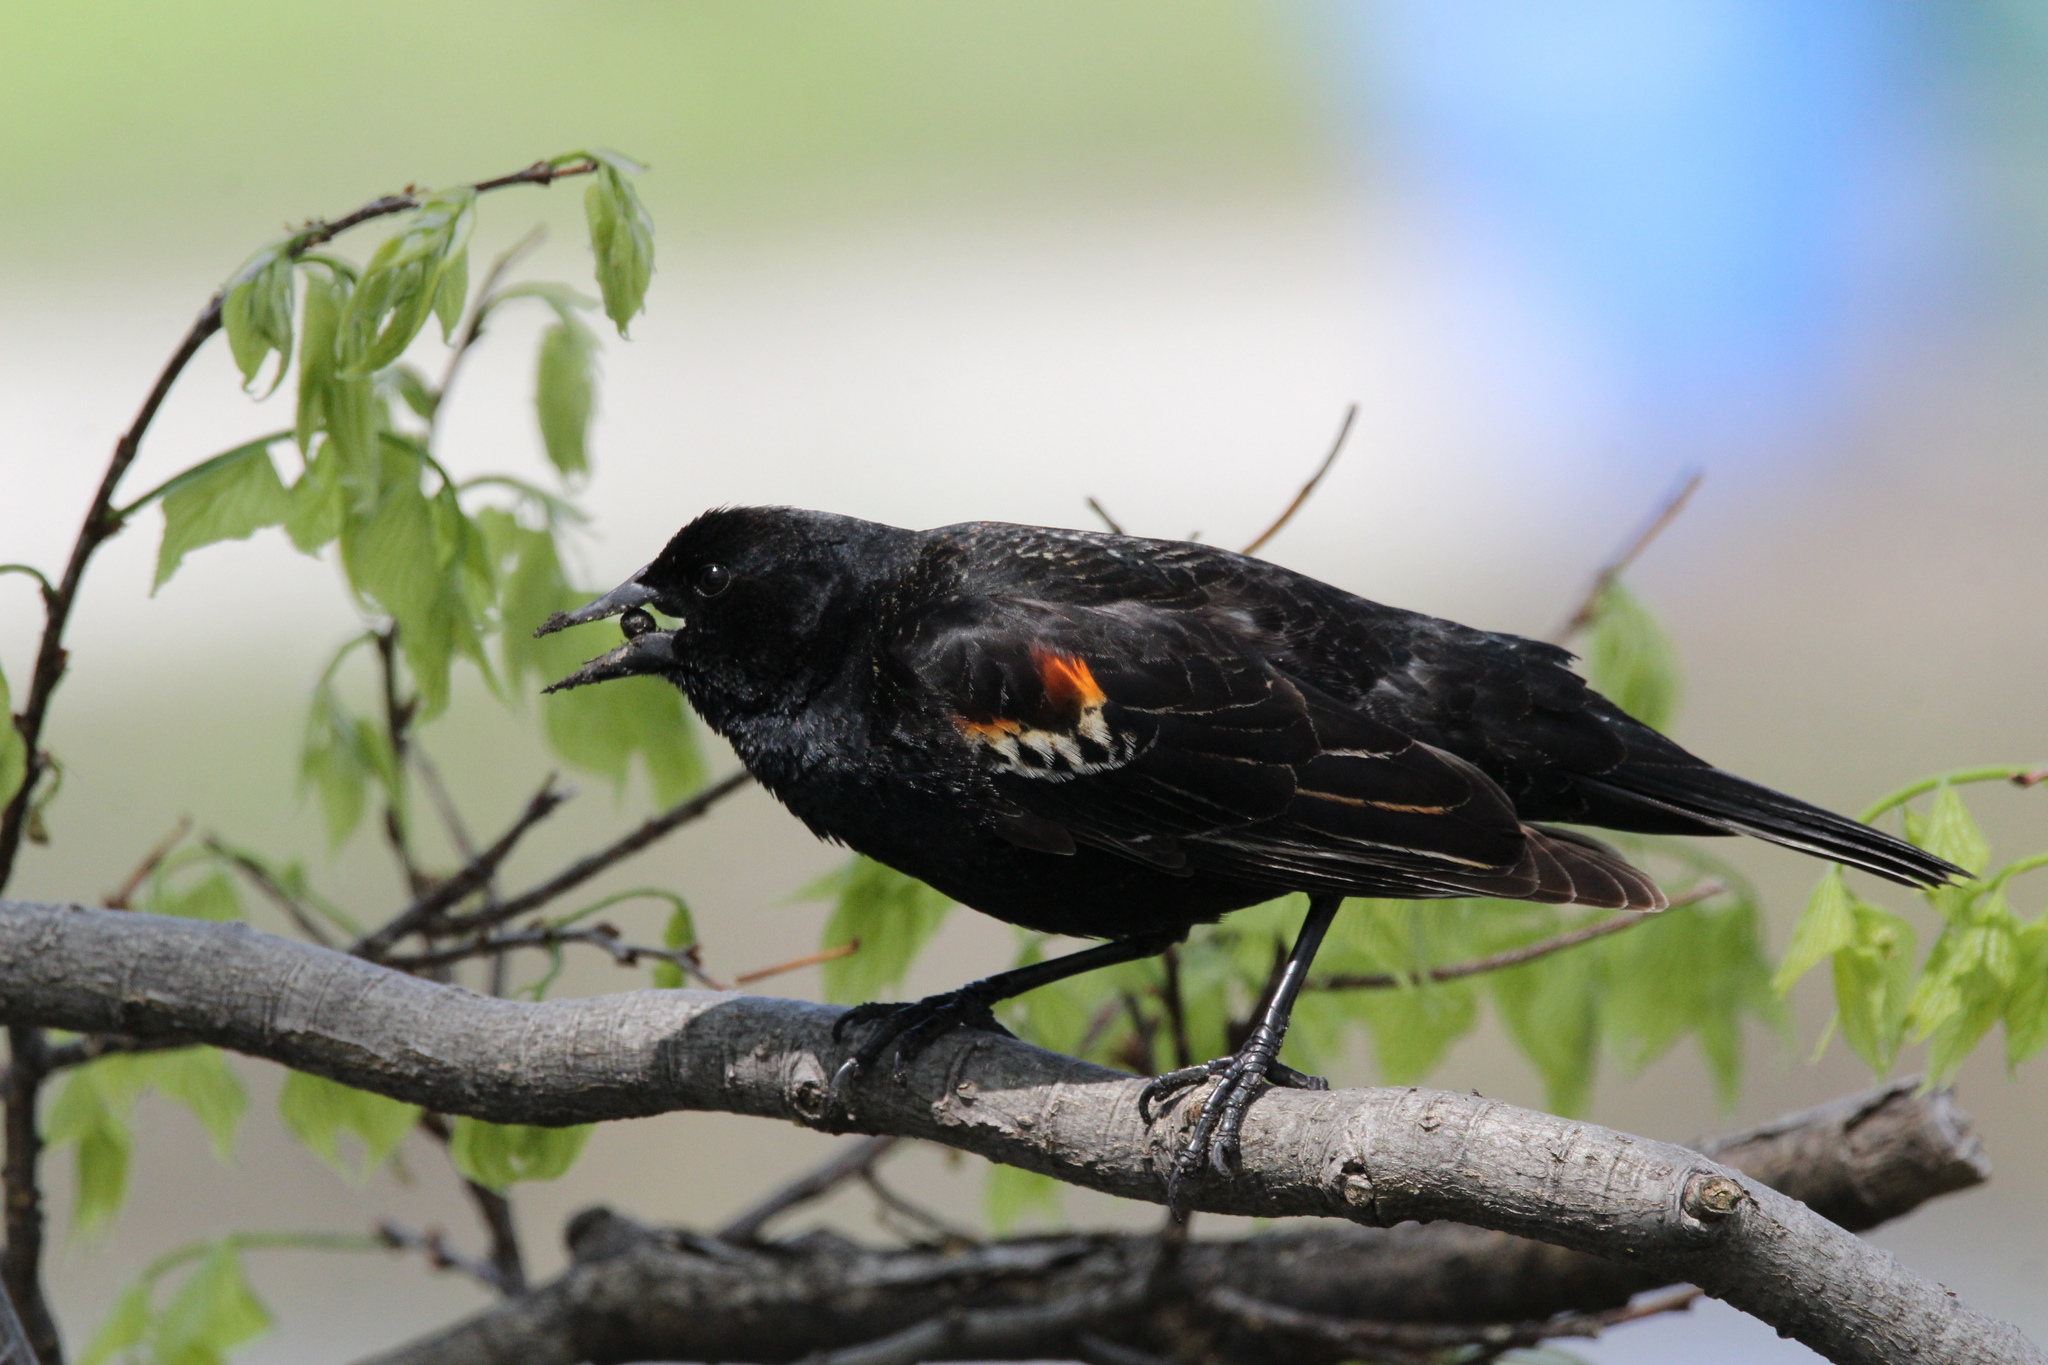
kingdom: Animalia
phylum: Chordata
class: Aves
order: Passeriformes
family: Icteridae
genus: Agelaius
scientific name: Agelaius phoeniceus
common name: Red-winged blackbird
